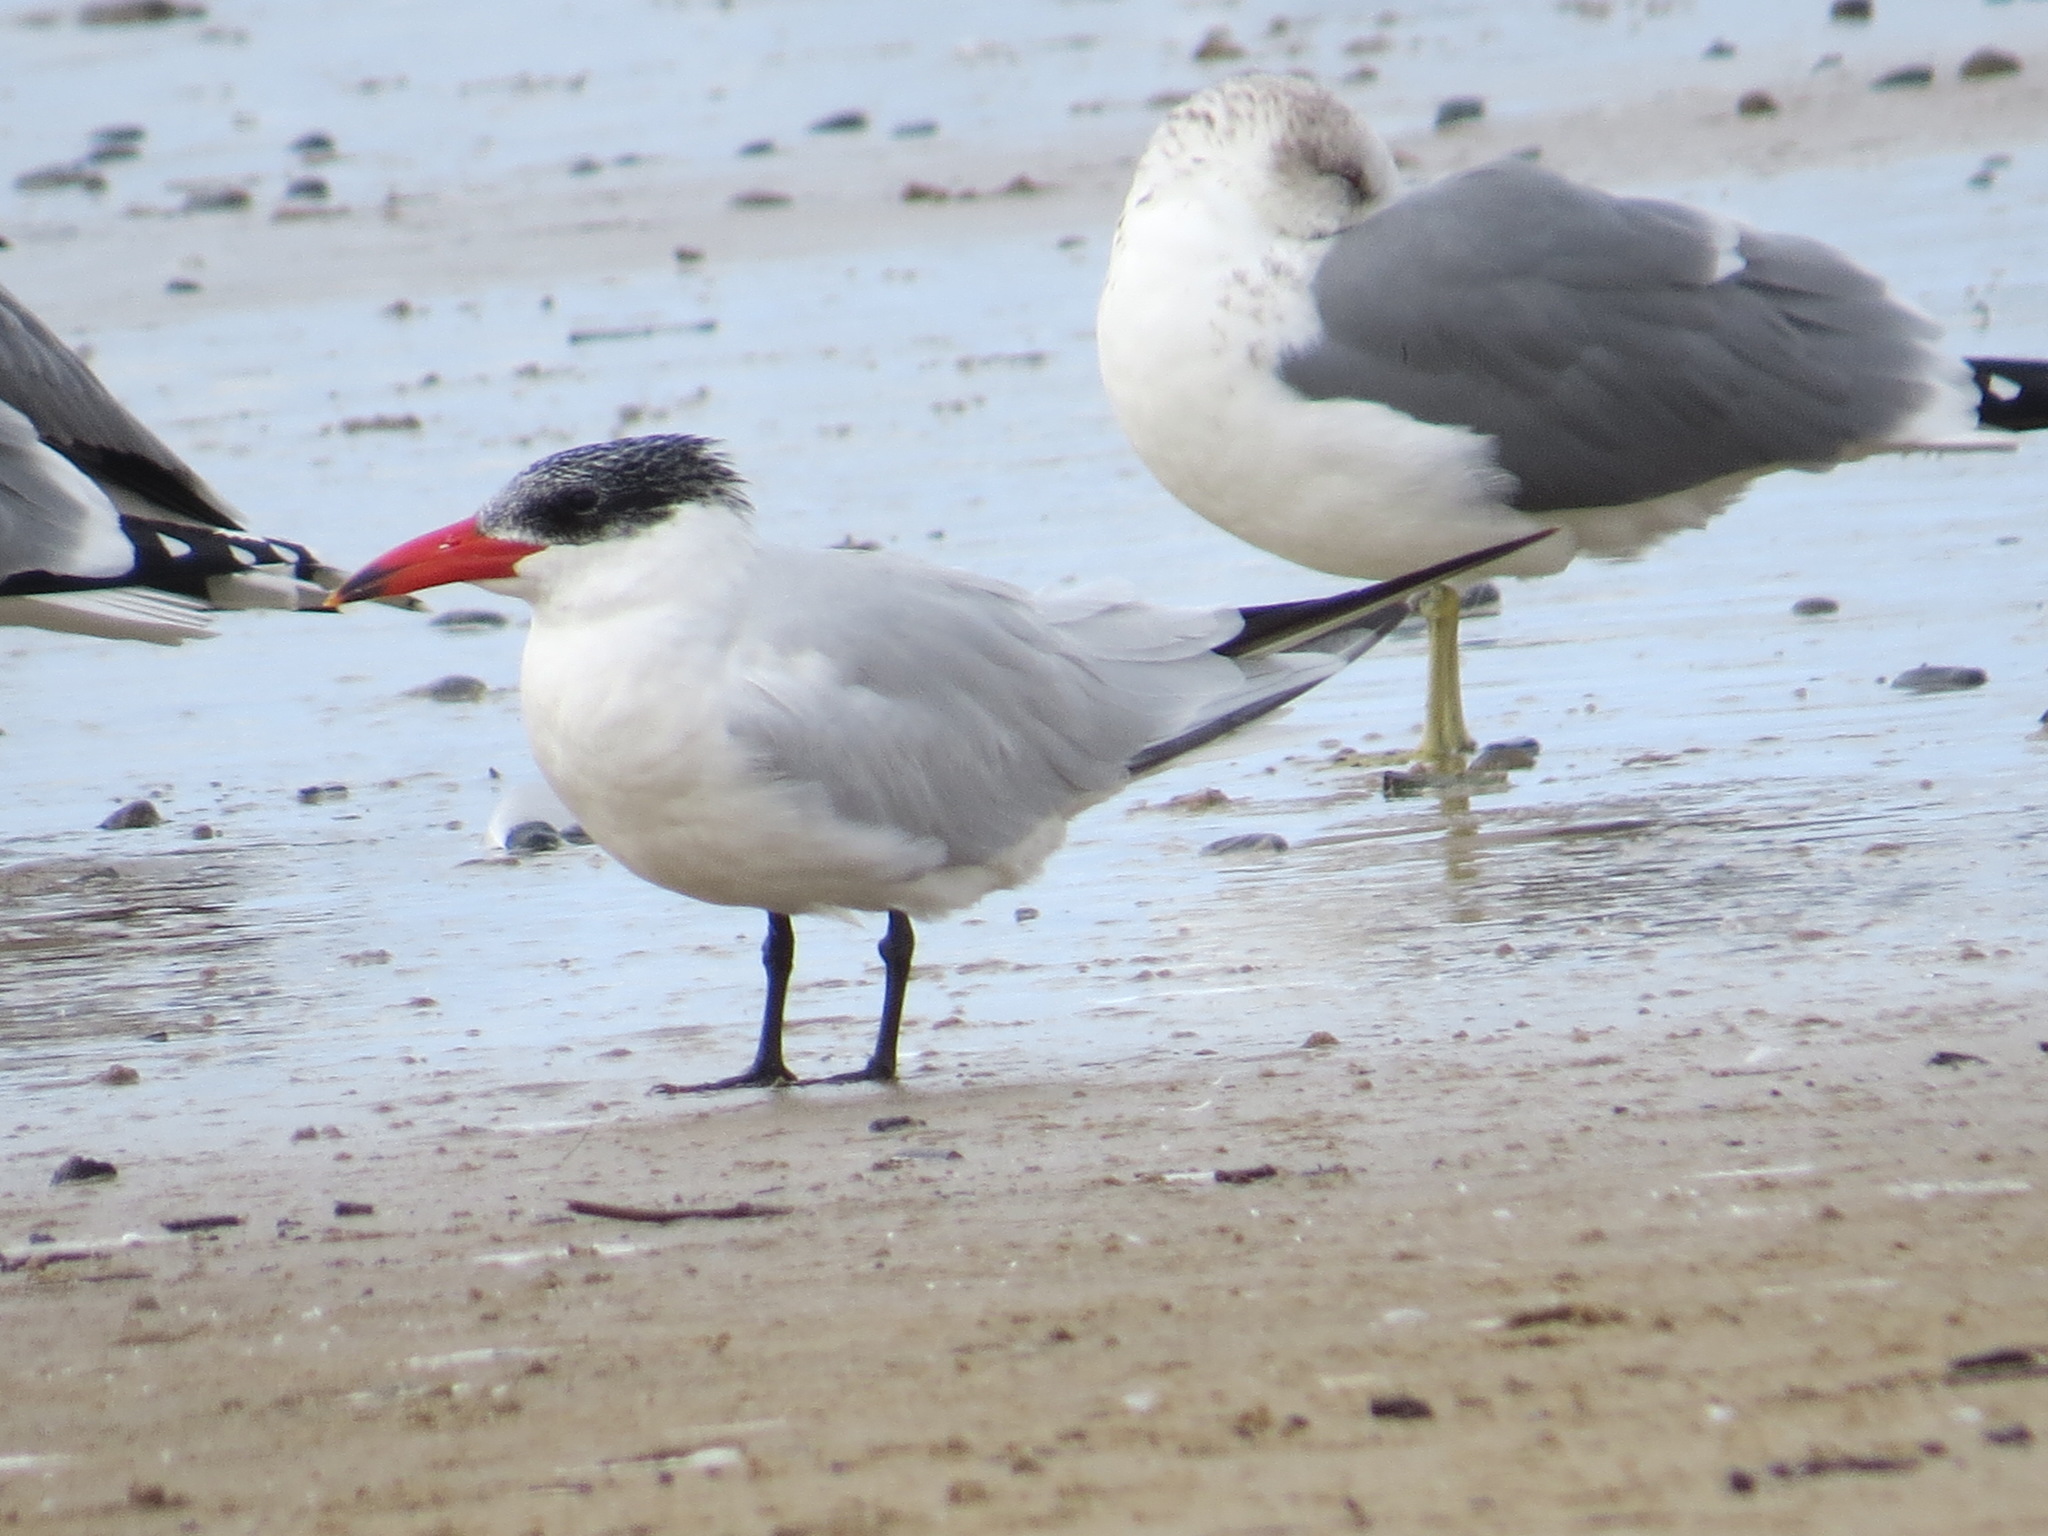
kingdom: Animalia
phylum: Chordata
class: Aves
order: Charadriiformes
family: Laridae
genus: Hydroprogne
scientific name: Hydroprogne caspia
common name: Caspian tern
